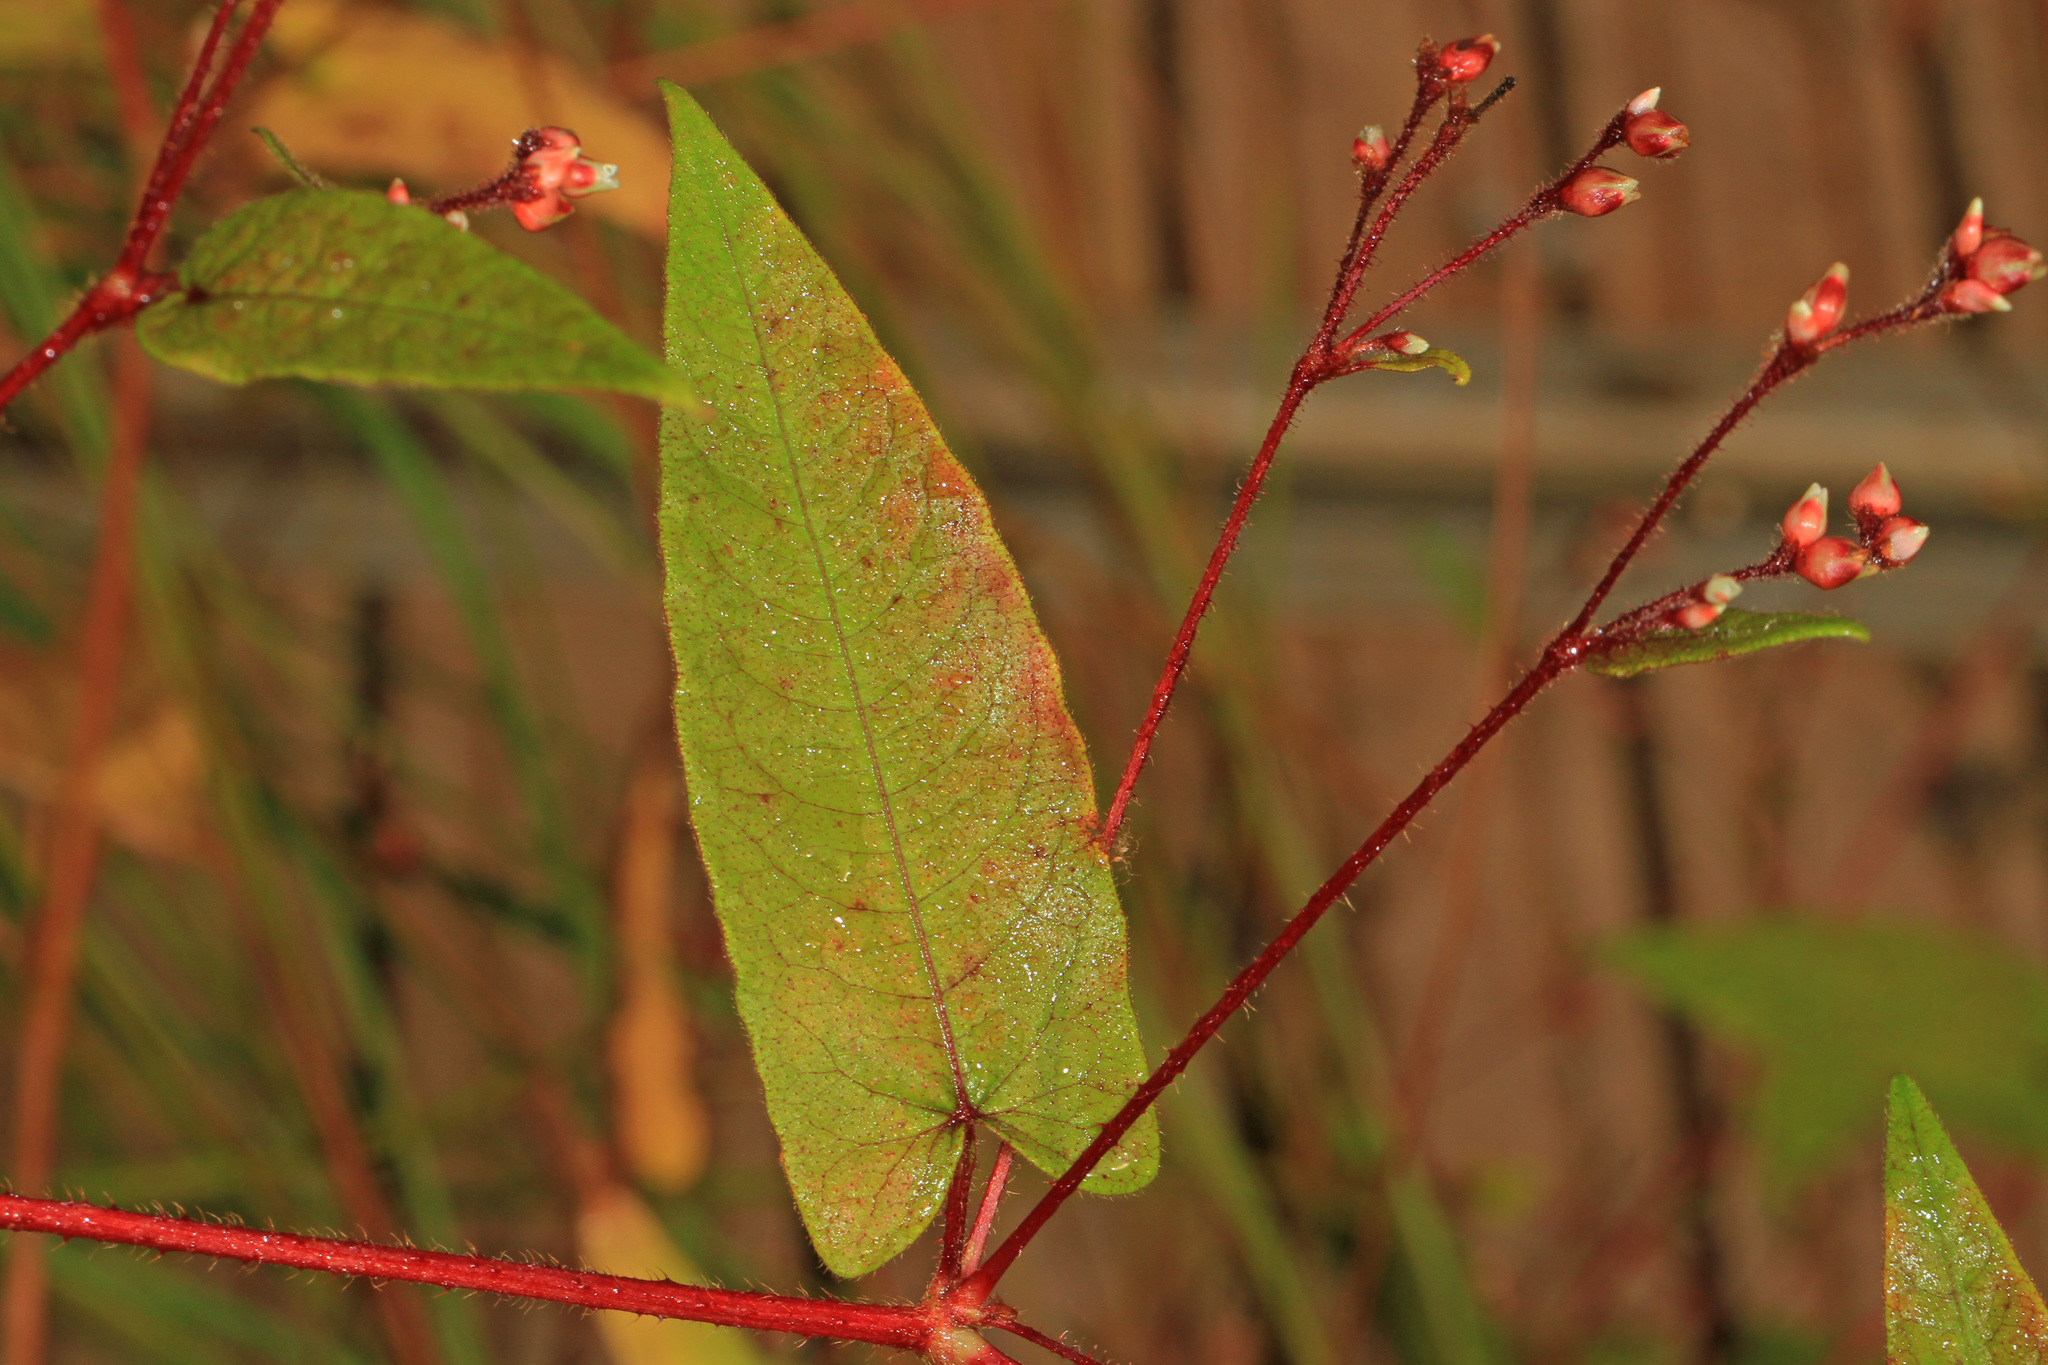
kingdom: Plantae
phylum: Tracheophyta
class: Magnoliopsida
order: Caryophyllales
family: Polygonaceae
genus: Persicaria
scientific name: Persicaria arifolia
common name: Halberd-leaved tear-thumb
